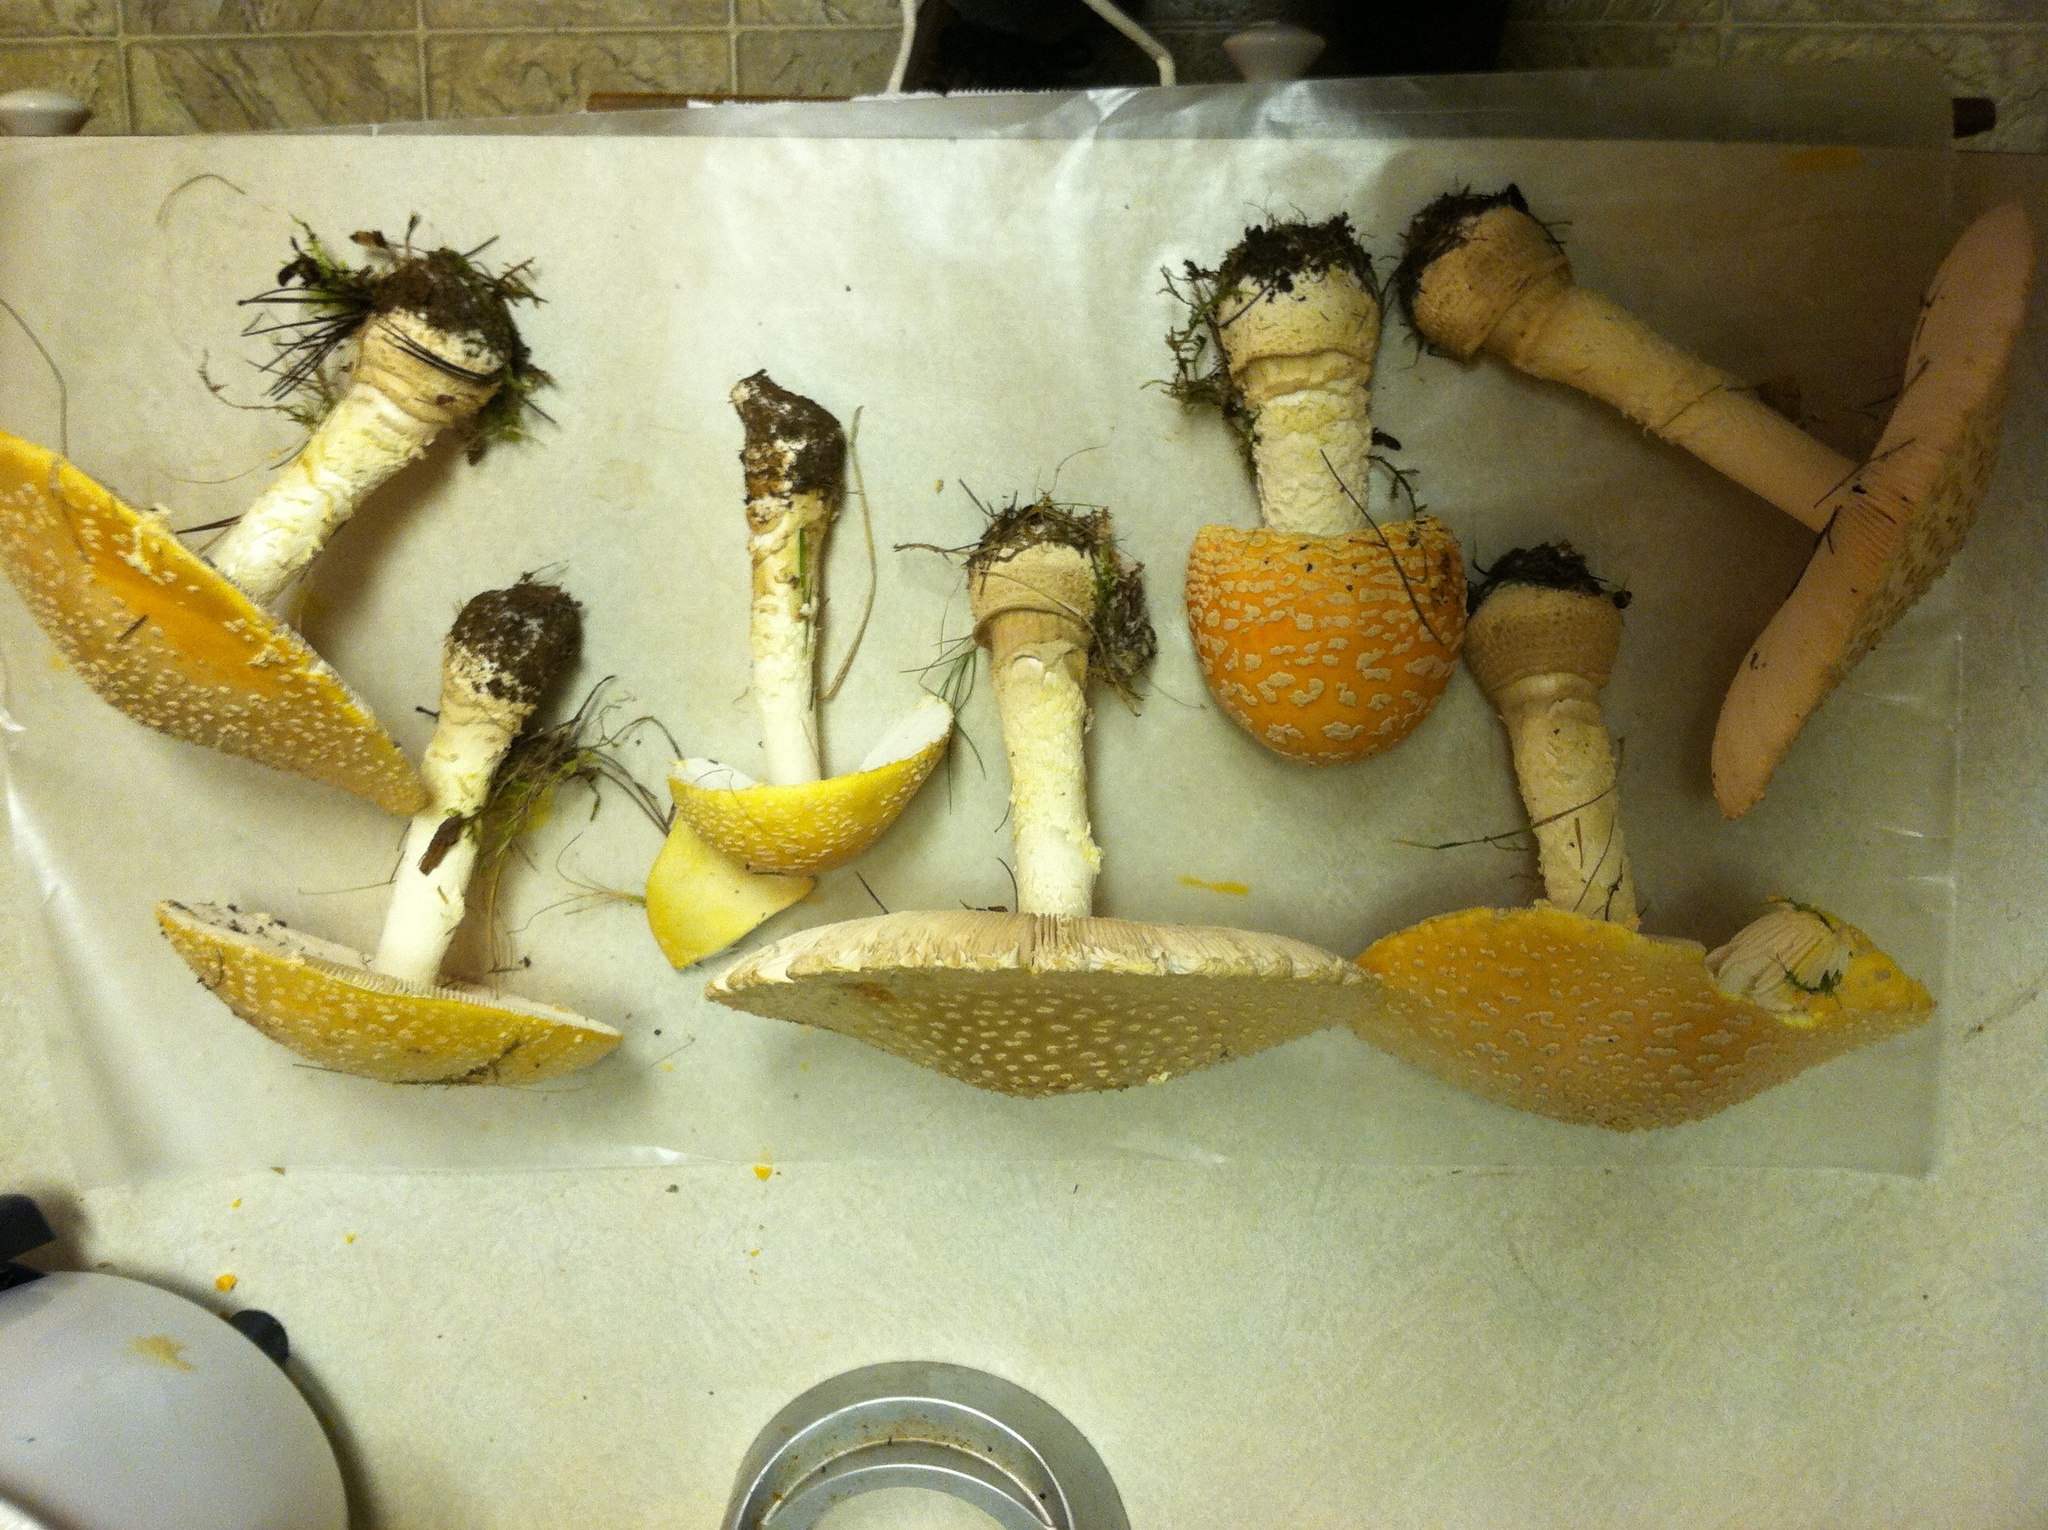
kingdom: Fungi
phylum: Basidiomycota
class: Agaricomycetes
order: Agaricales
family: Amanitaceae
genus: Amanita
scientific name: Amanita muscaria
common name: Fly agaric
